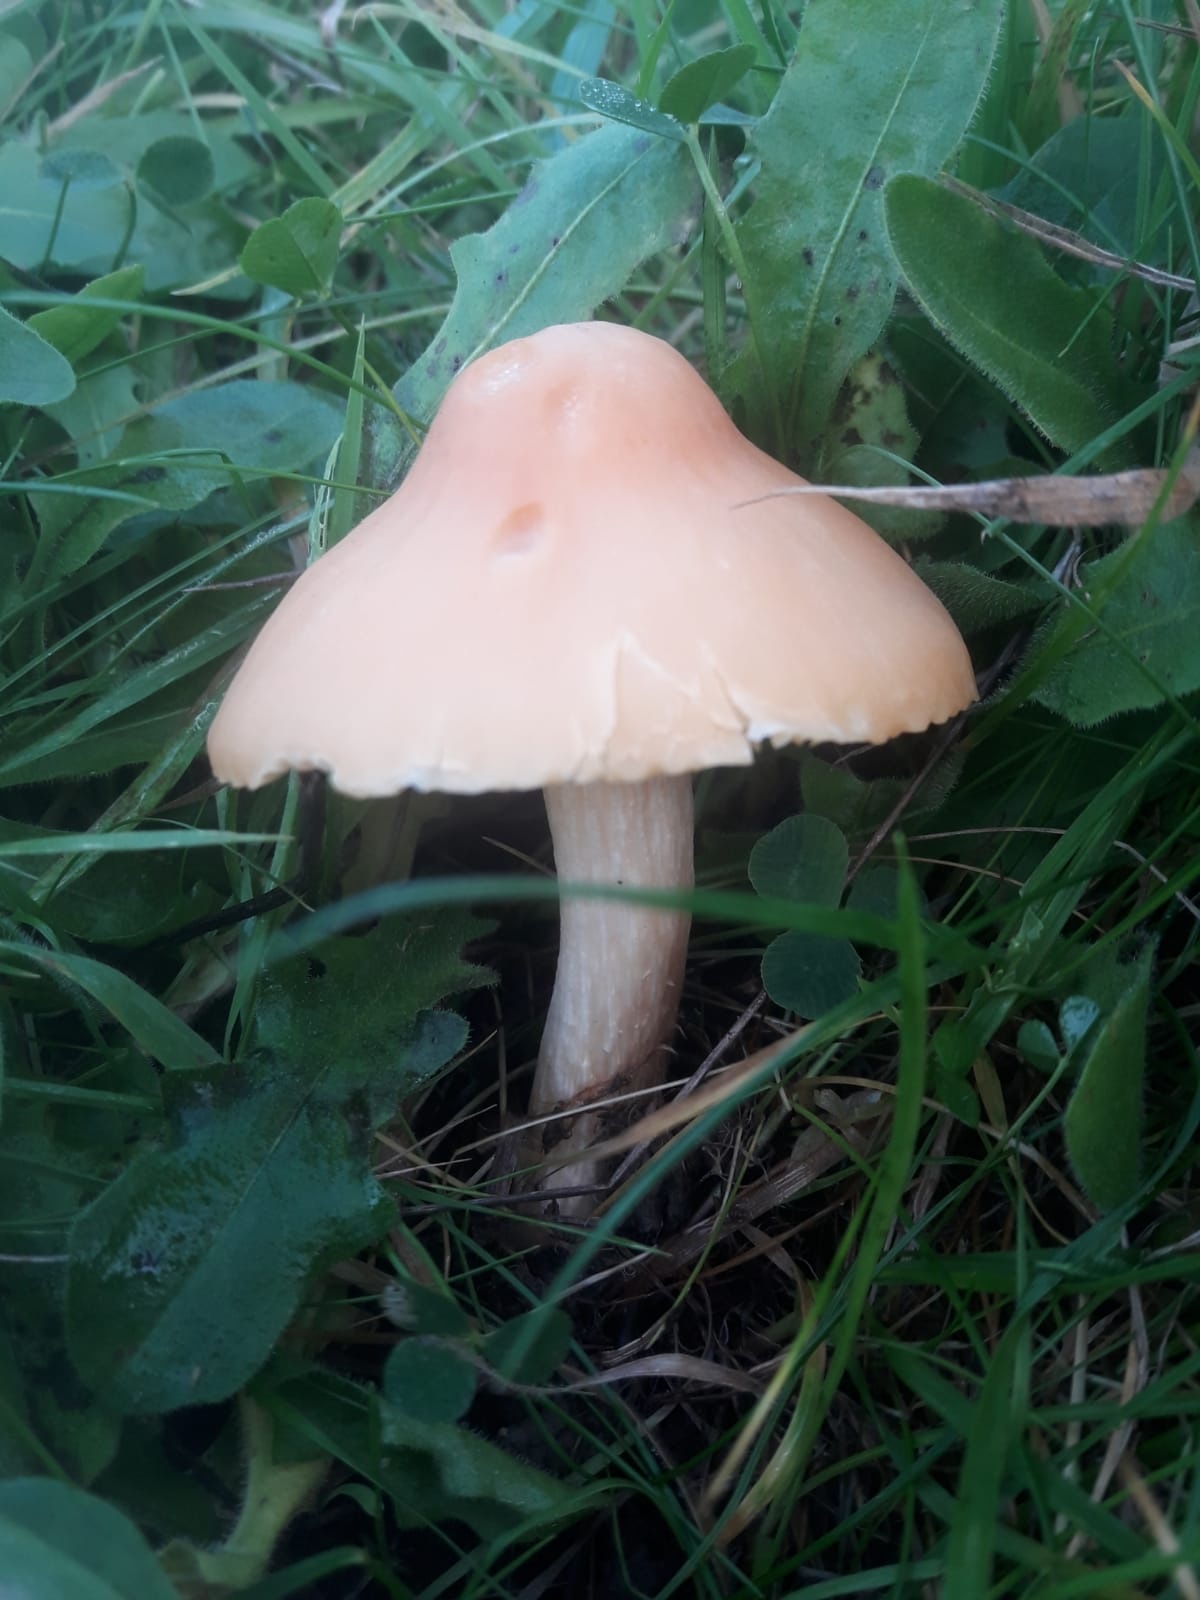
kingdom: Fungi
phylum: Basidiomycota
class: Agaricomycetes
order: Agaricales
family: Hygrophoraceae
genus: Cuphophyllus
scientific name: Cuphophyllus pratensis
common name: Meadow waxcap
